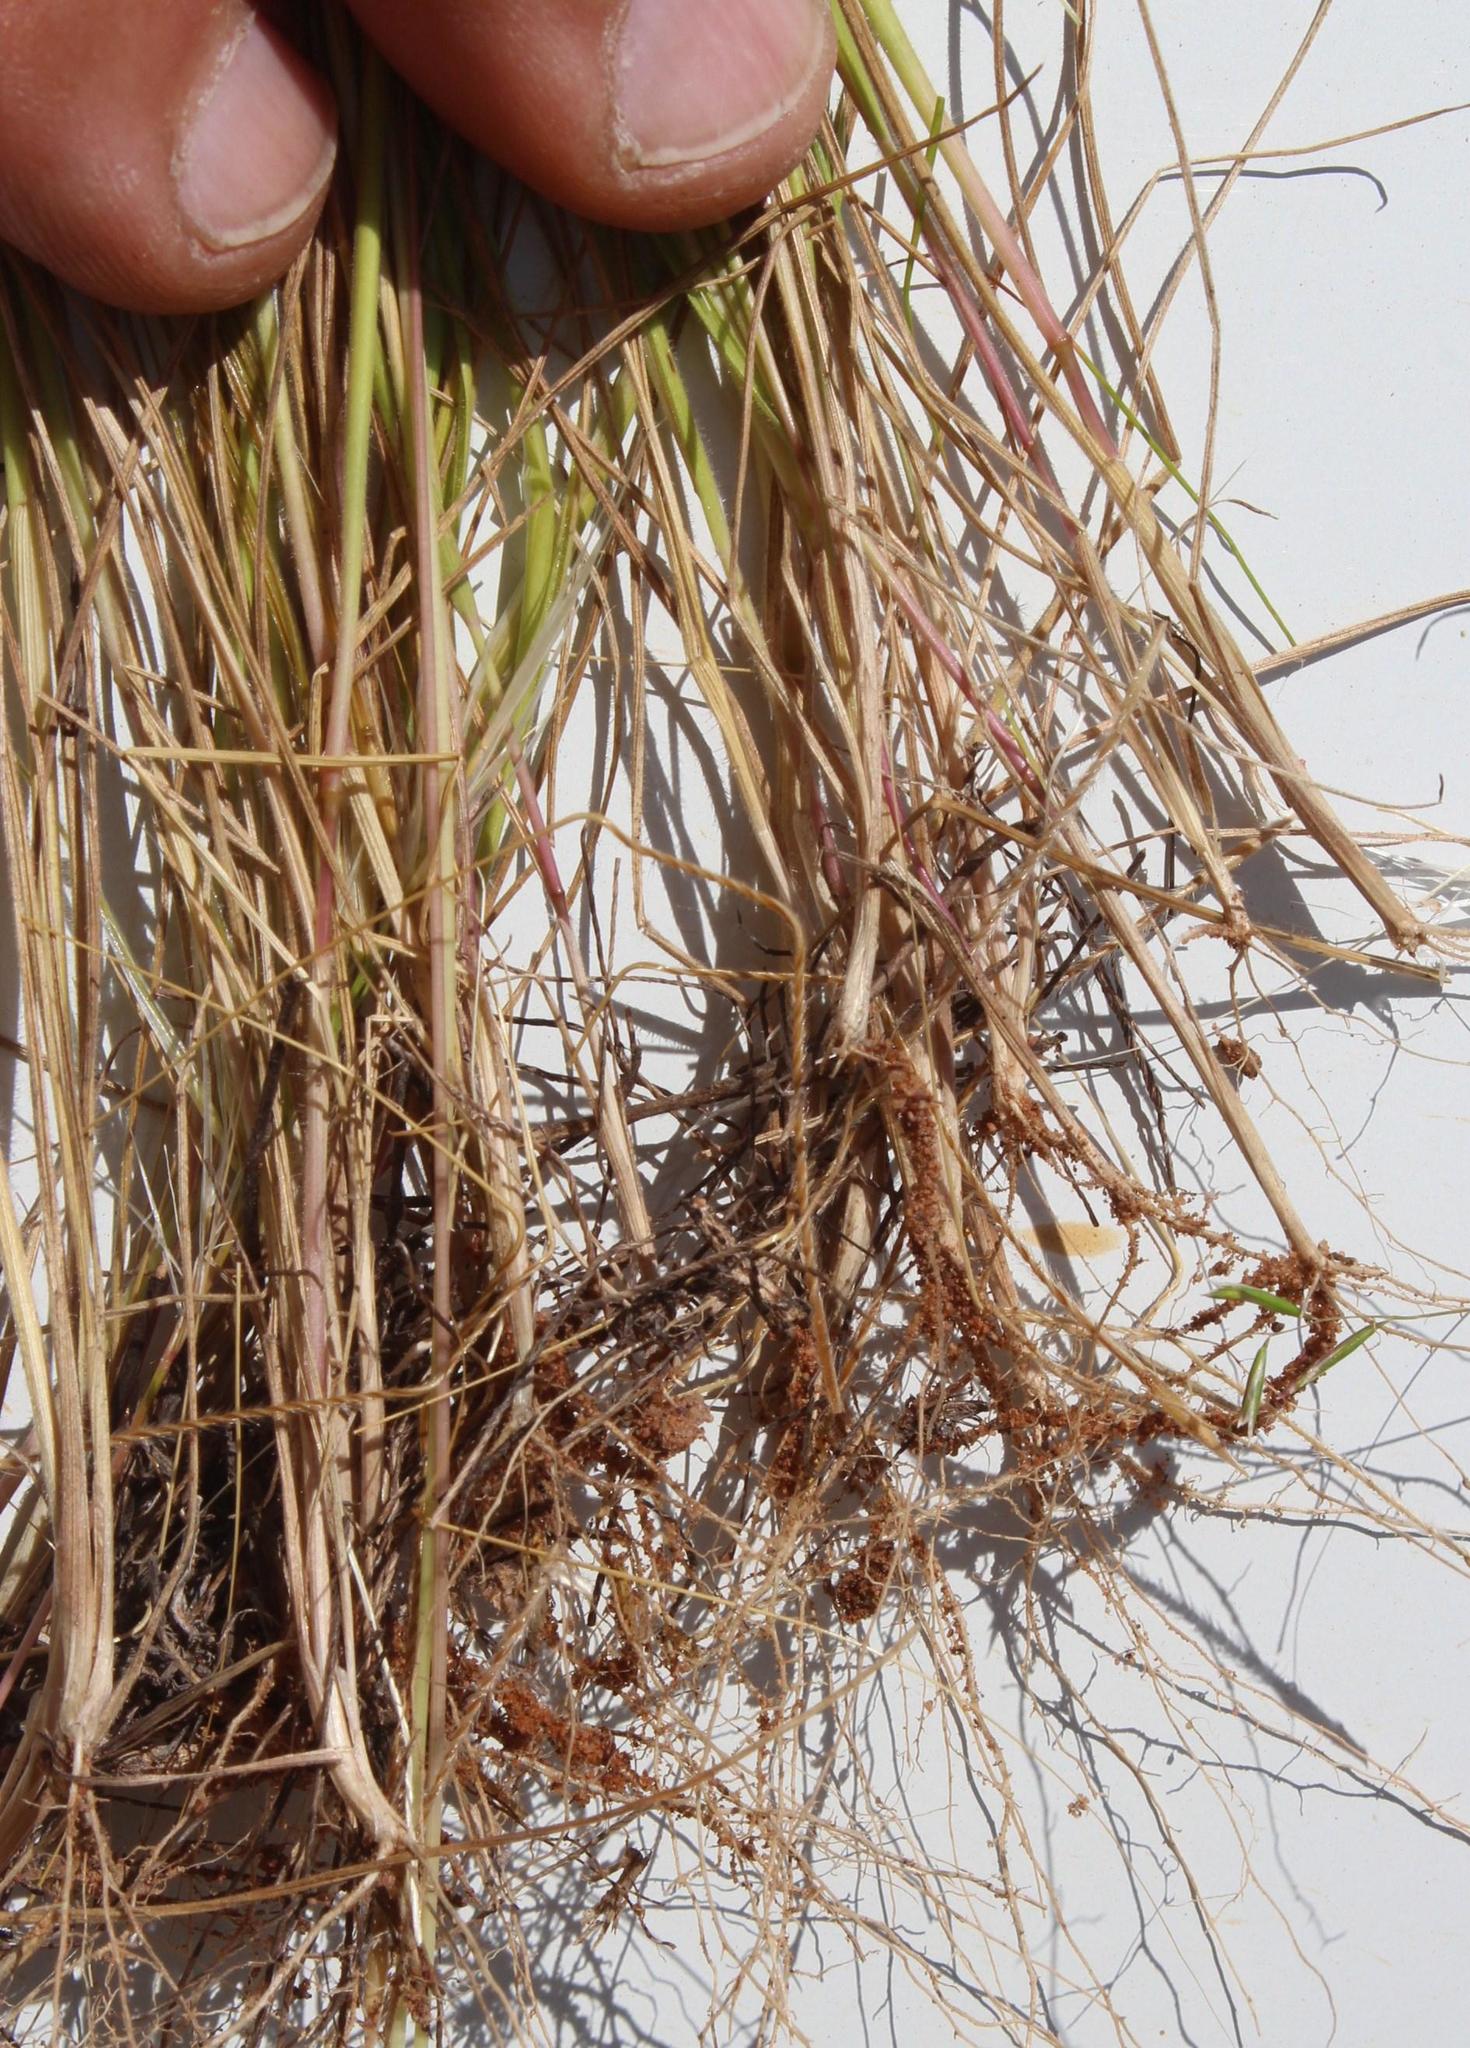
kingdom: Plantae
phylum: Tracheophyta
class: Liliopsida
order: Poales
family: Poaceae
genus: Hordeum
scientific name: Hordeum murinum
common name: Wall barley
